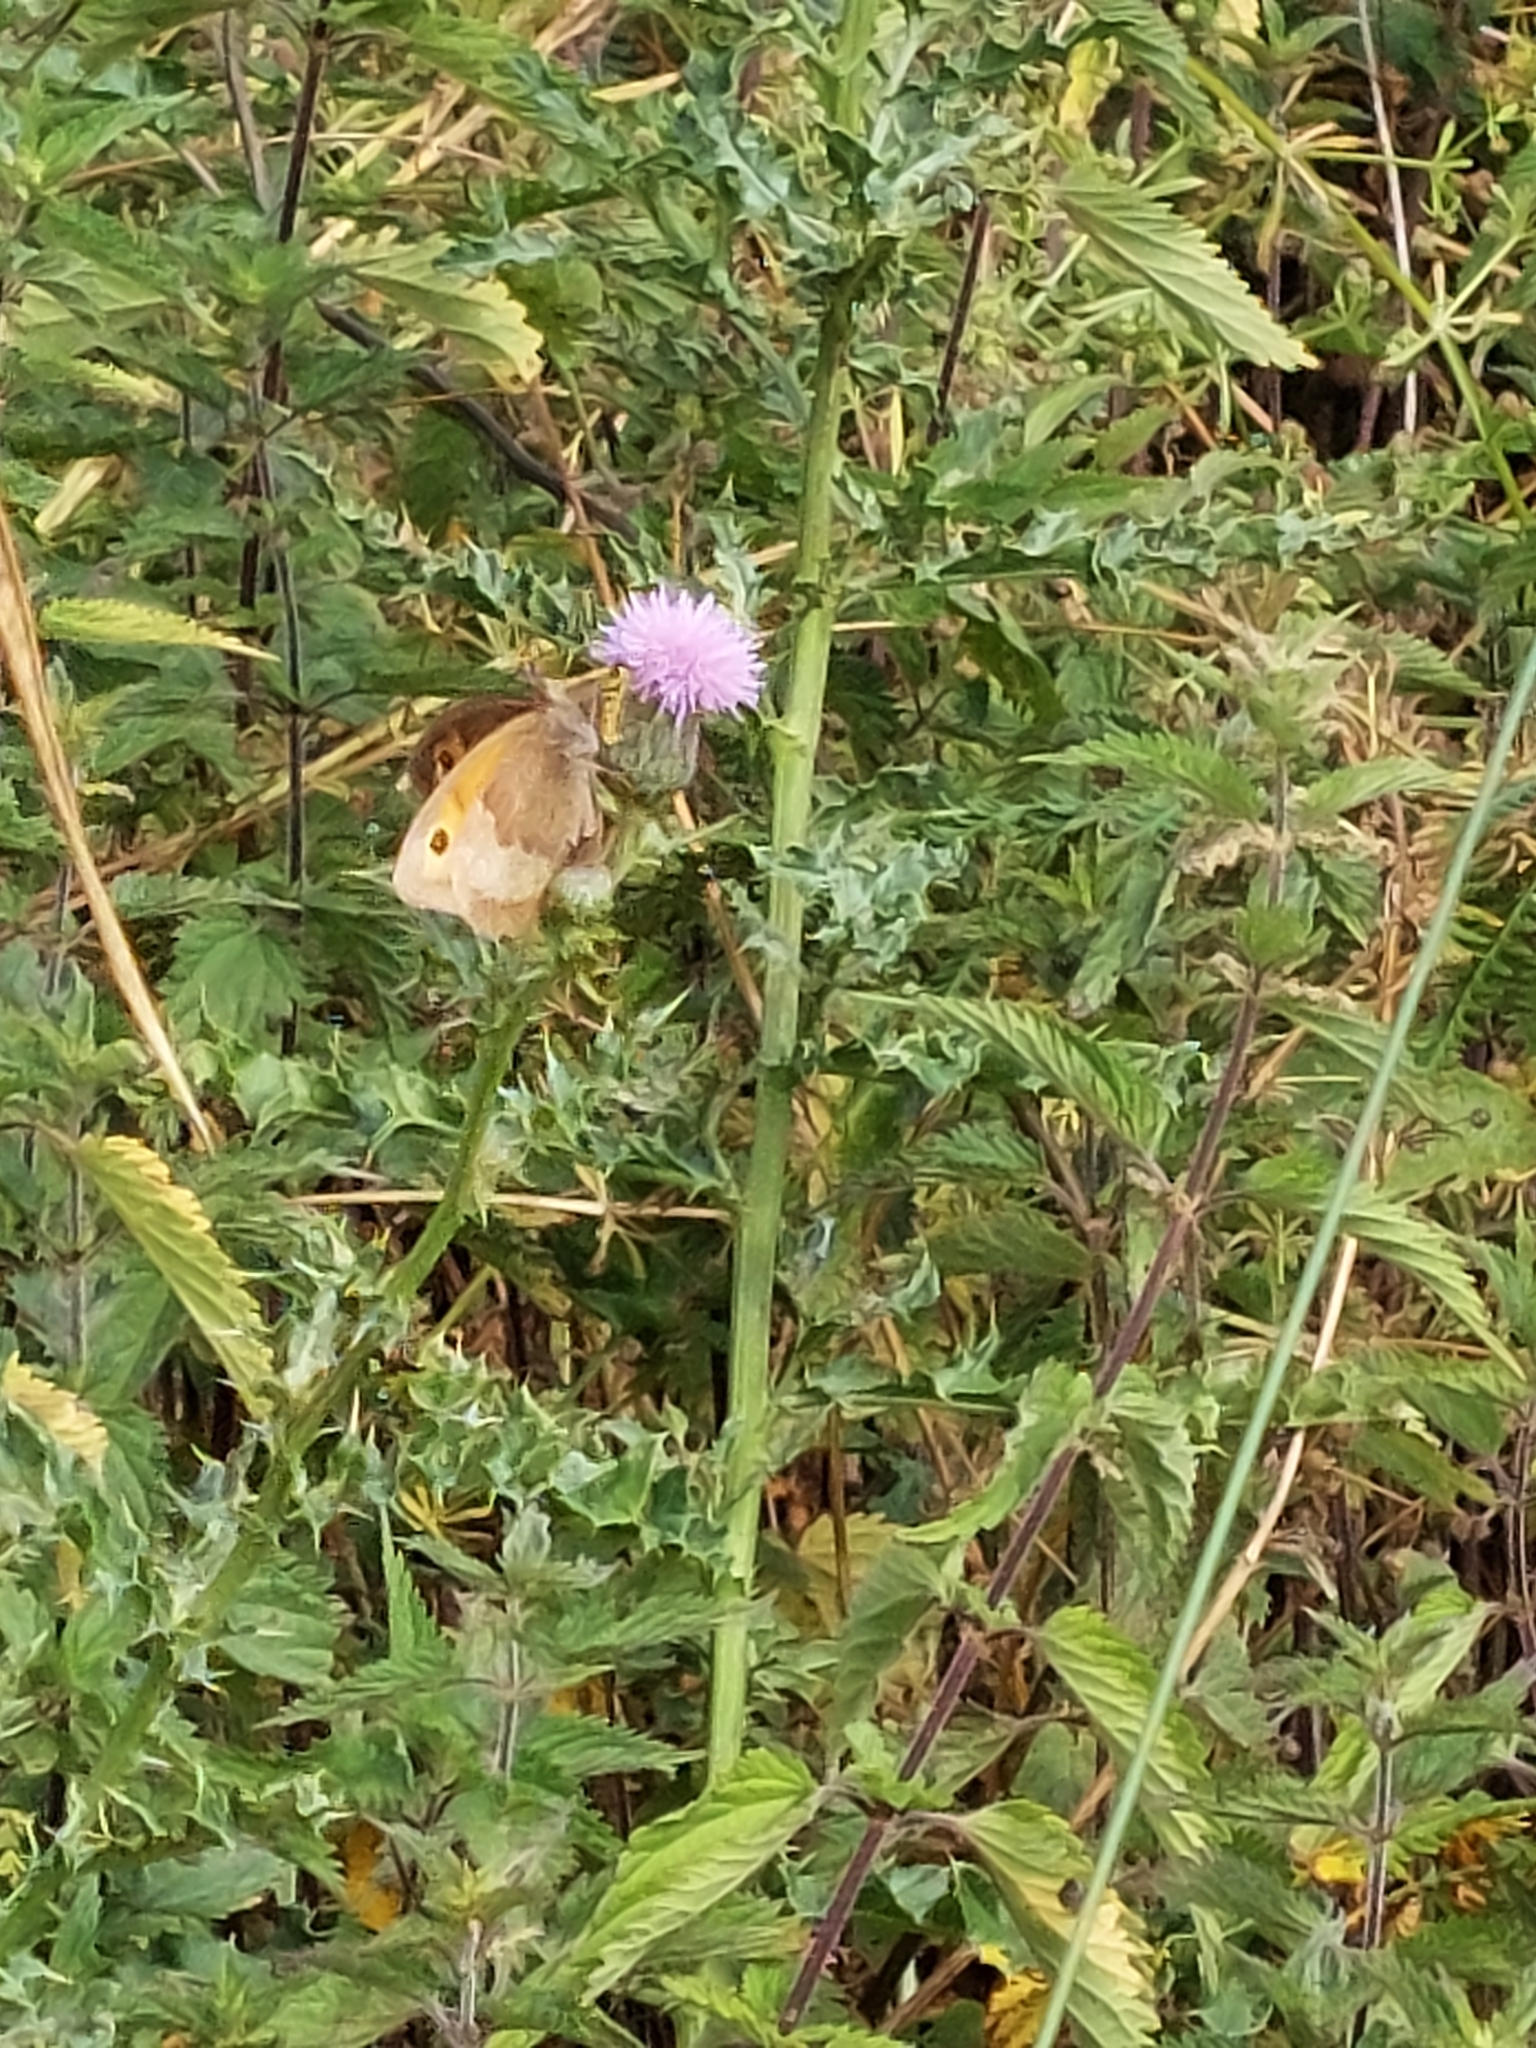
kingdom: Animalia
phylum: Arthropoda
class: Insecta
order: Lepidoptera
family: Nymphalidae
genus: Maniola
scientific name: Maniola jurtina
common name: Meadow brown
